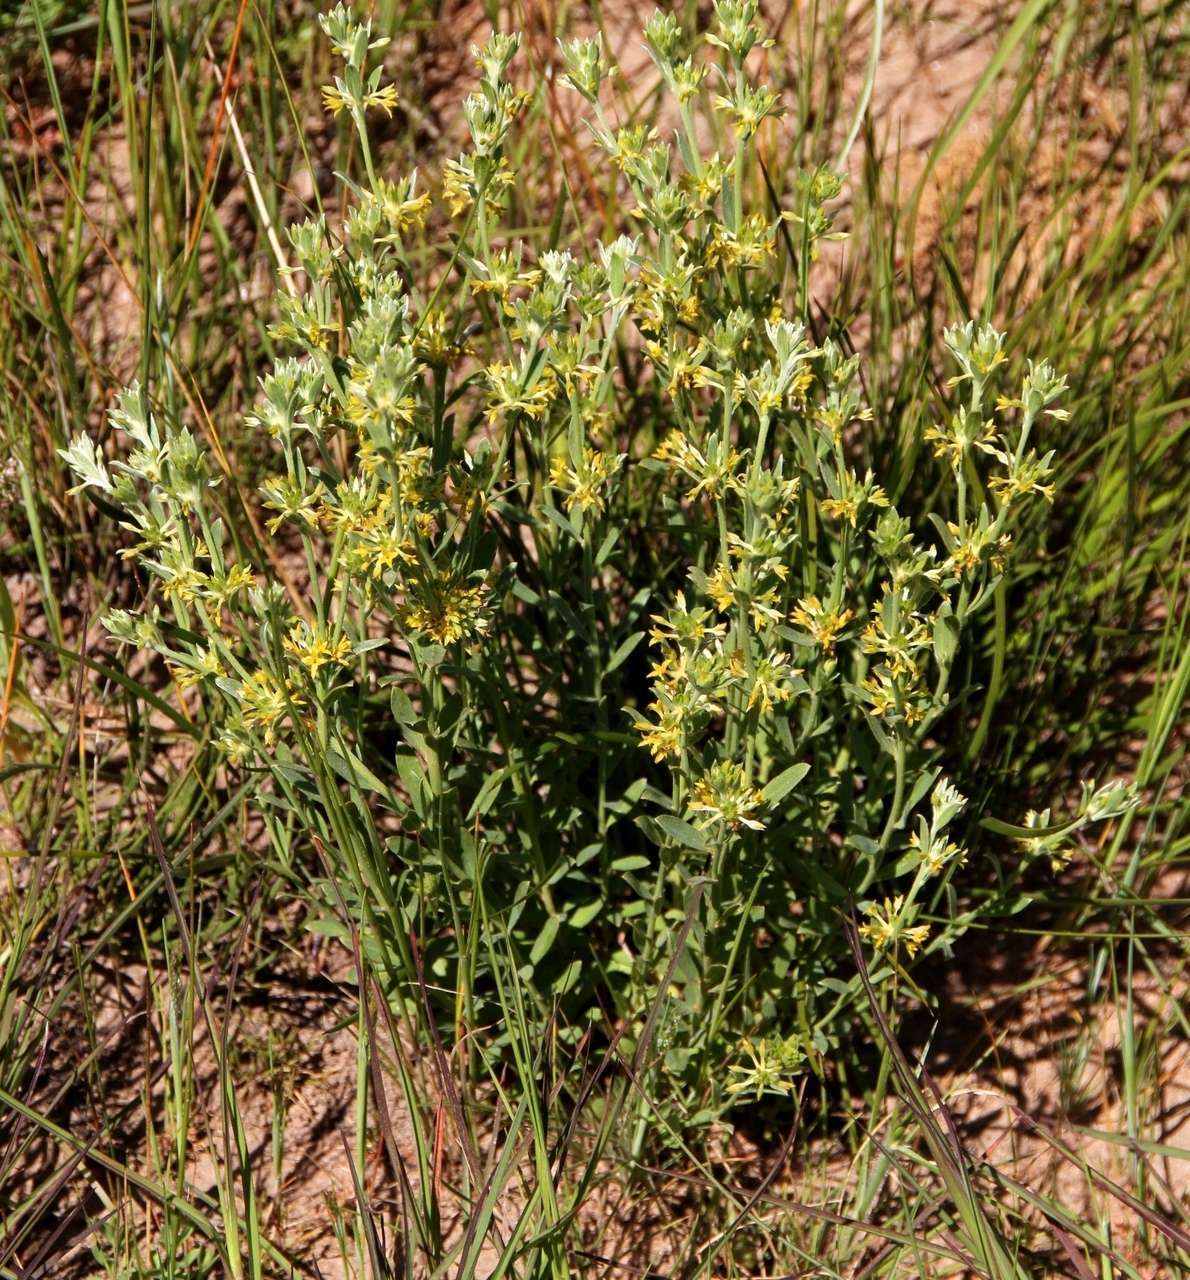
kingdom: Plantae
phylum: Tracheophyta
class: Magnoliopsida
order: Malvales
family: Thymelaeaceae
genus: Pimelea
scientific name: Pimelea curviflora
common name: Curved riceflower
